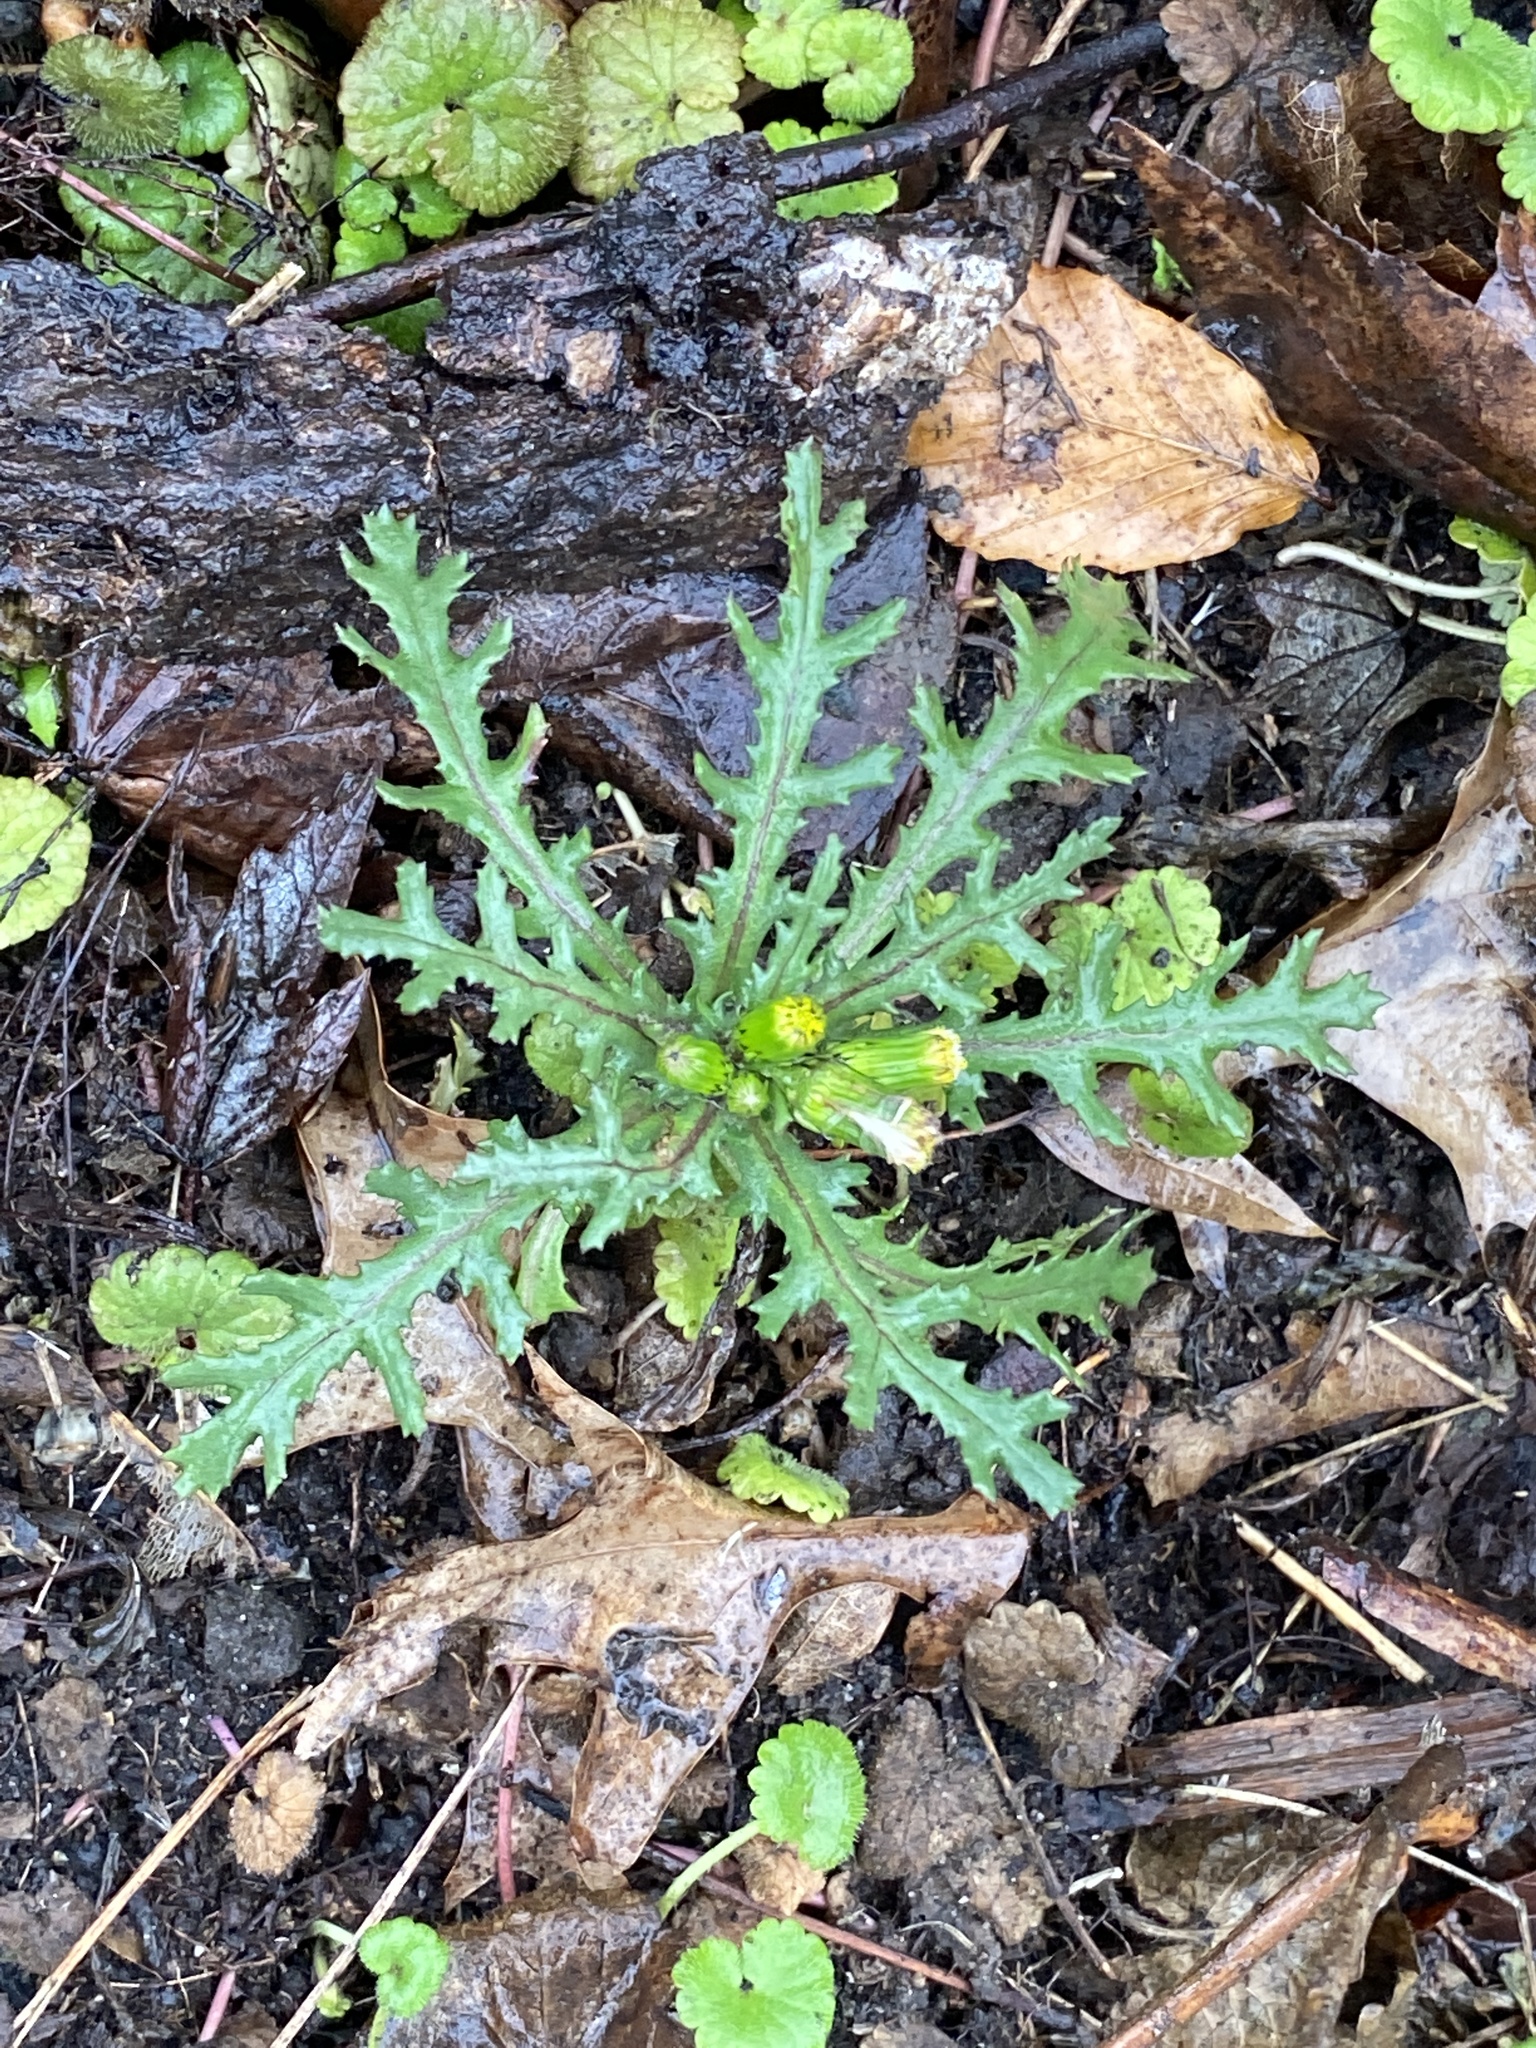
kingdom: Plantae
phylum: Tracheophyta
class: Magnoliopsida
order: Asterales
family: Asteraceae
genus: Senecio
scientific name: Senecio vulgaris
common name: Old-man-in-the-spring
